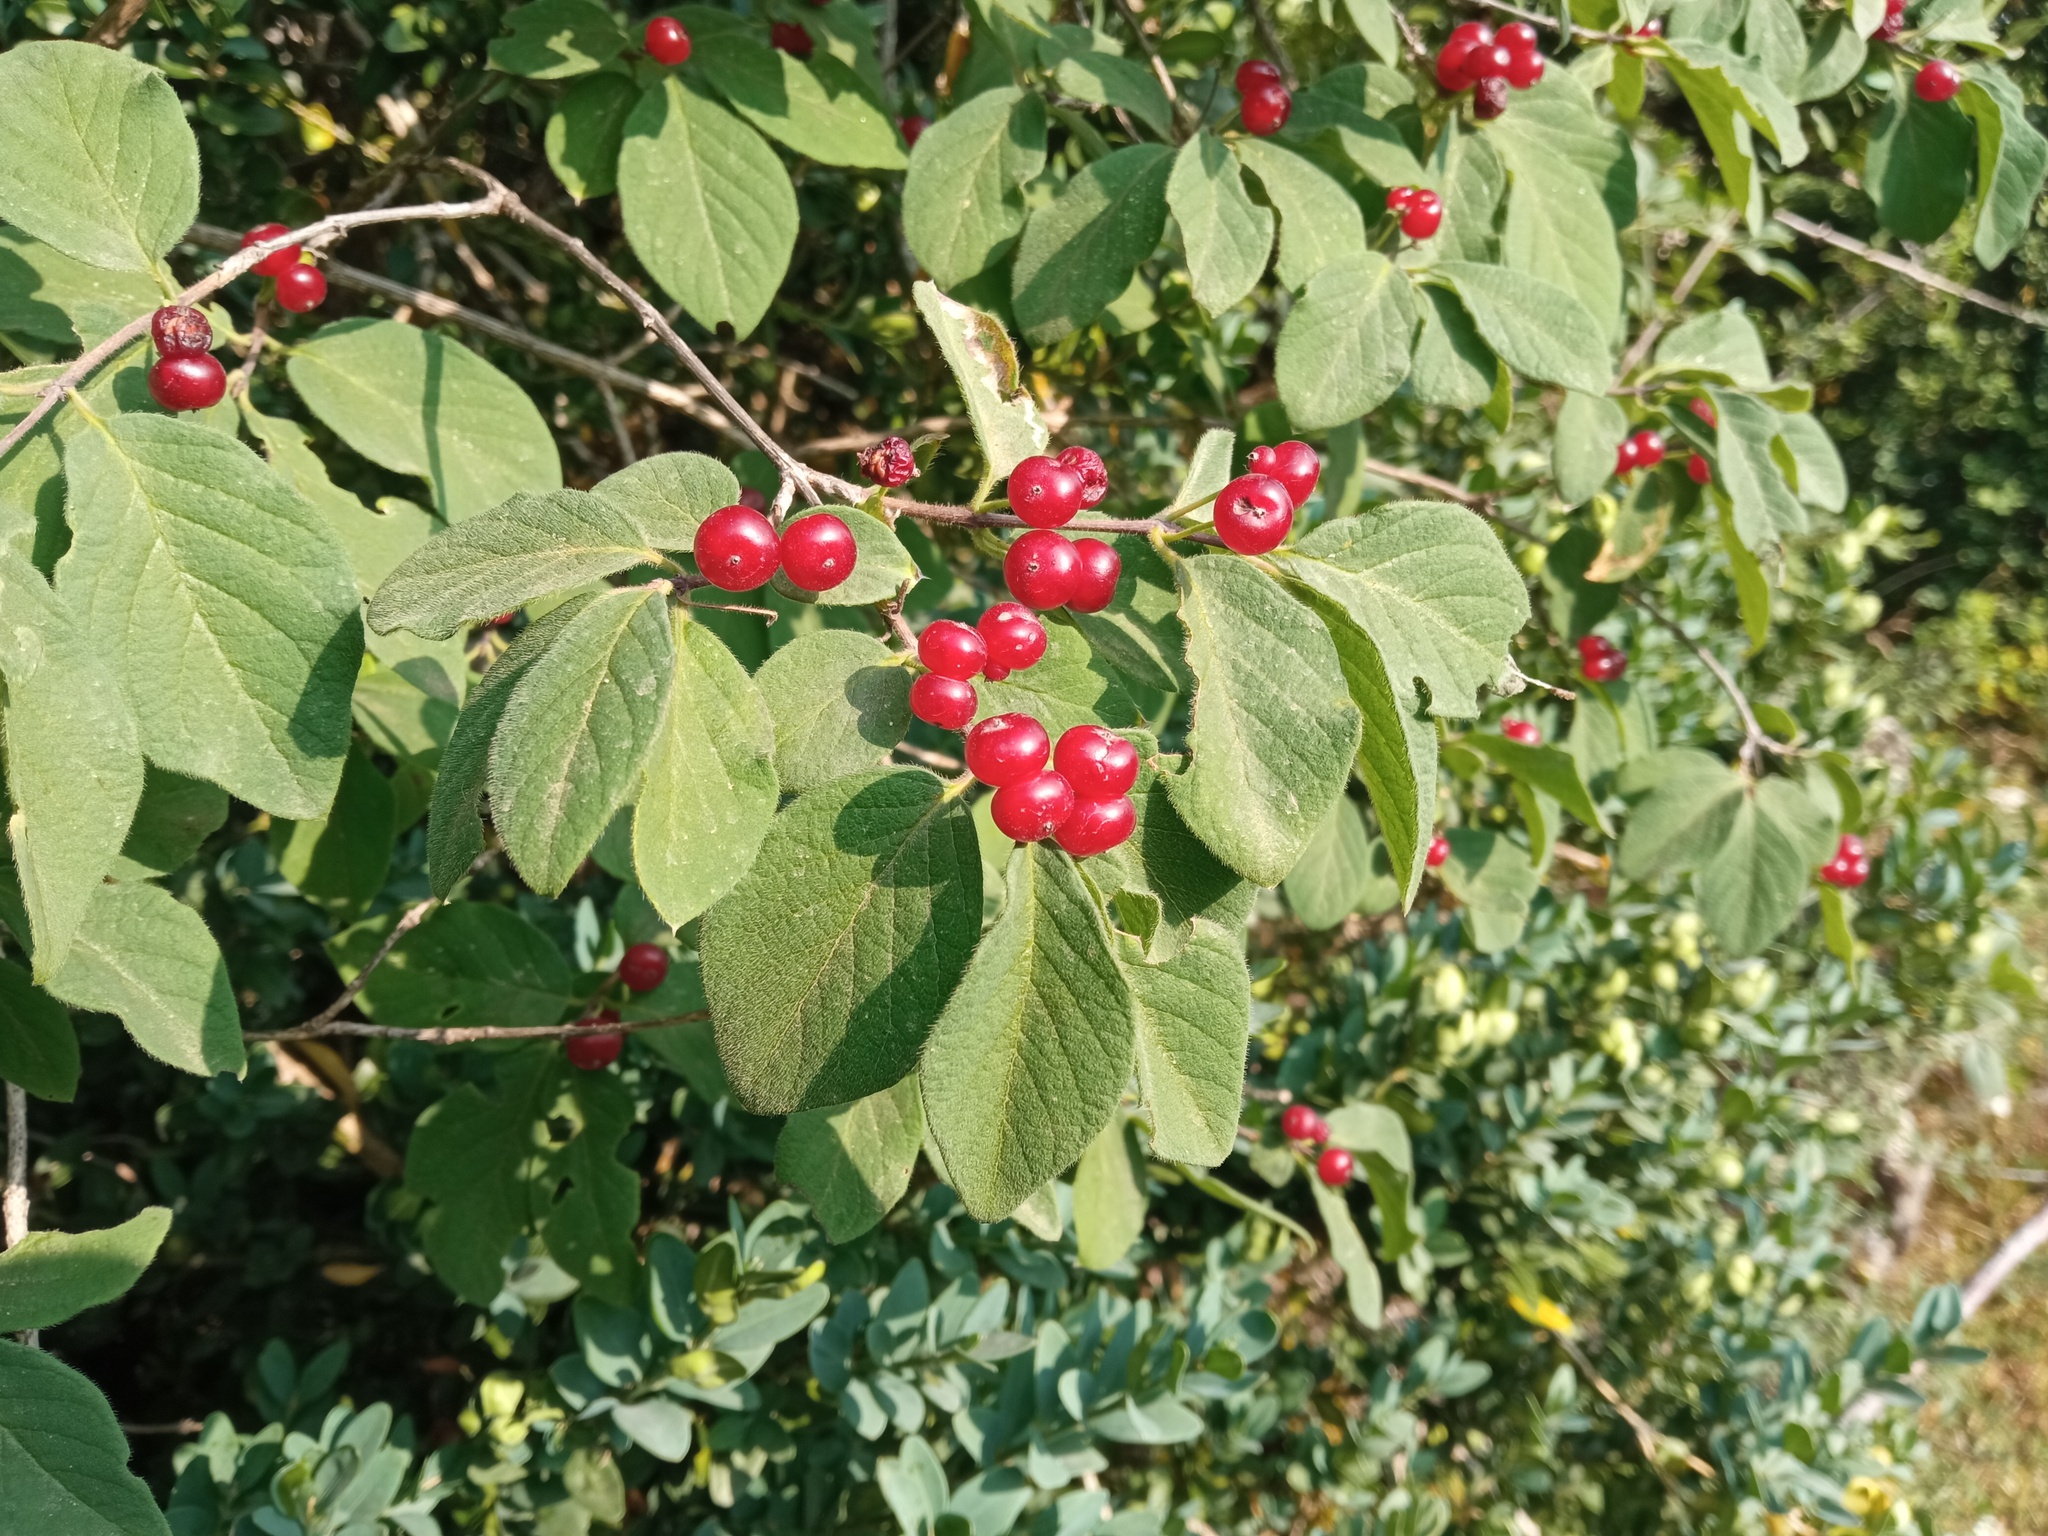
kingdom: Plantae
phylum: Tracheophyta
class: Magnoliopsida
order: Dipsacales
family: Caprifoliaceae
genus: Lonicera
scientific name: Lonicera xylosteum
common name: Fly honeysuckle
